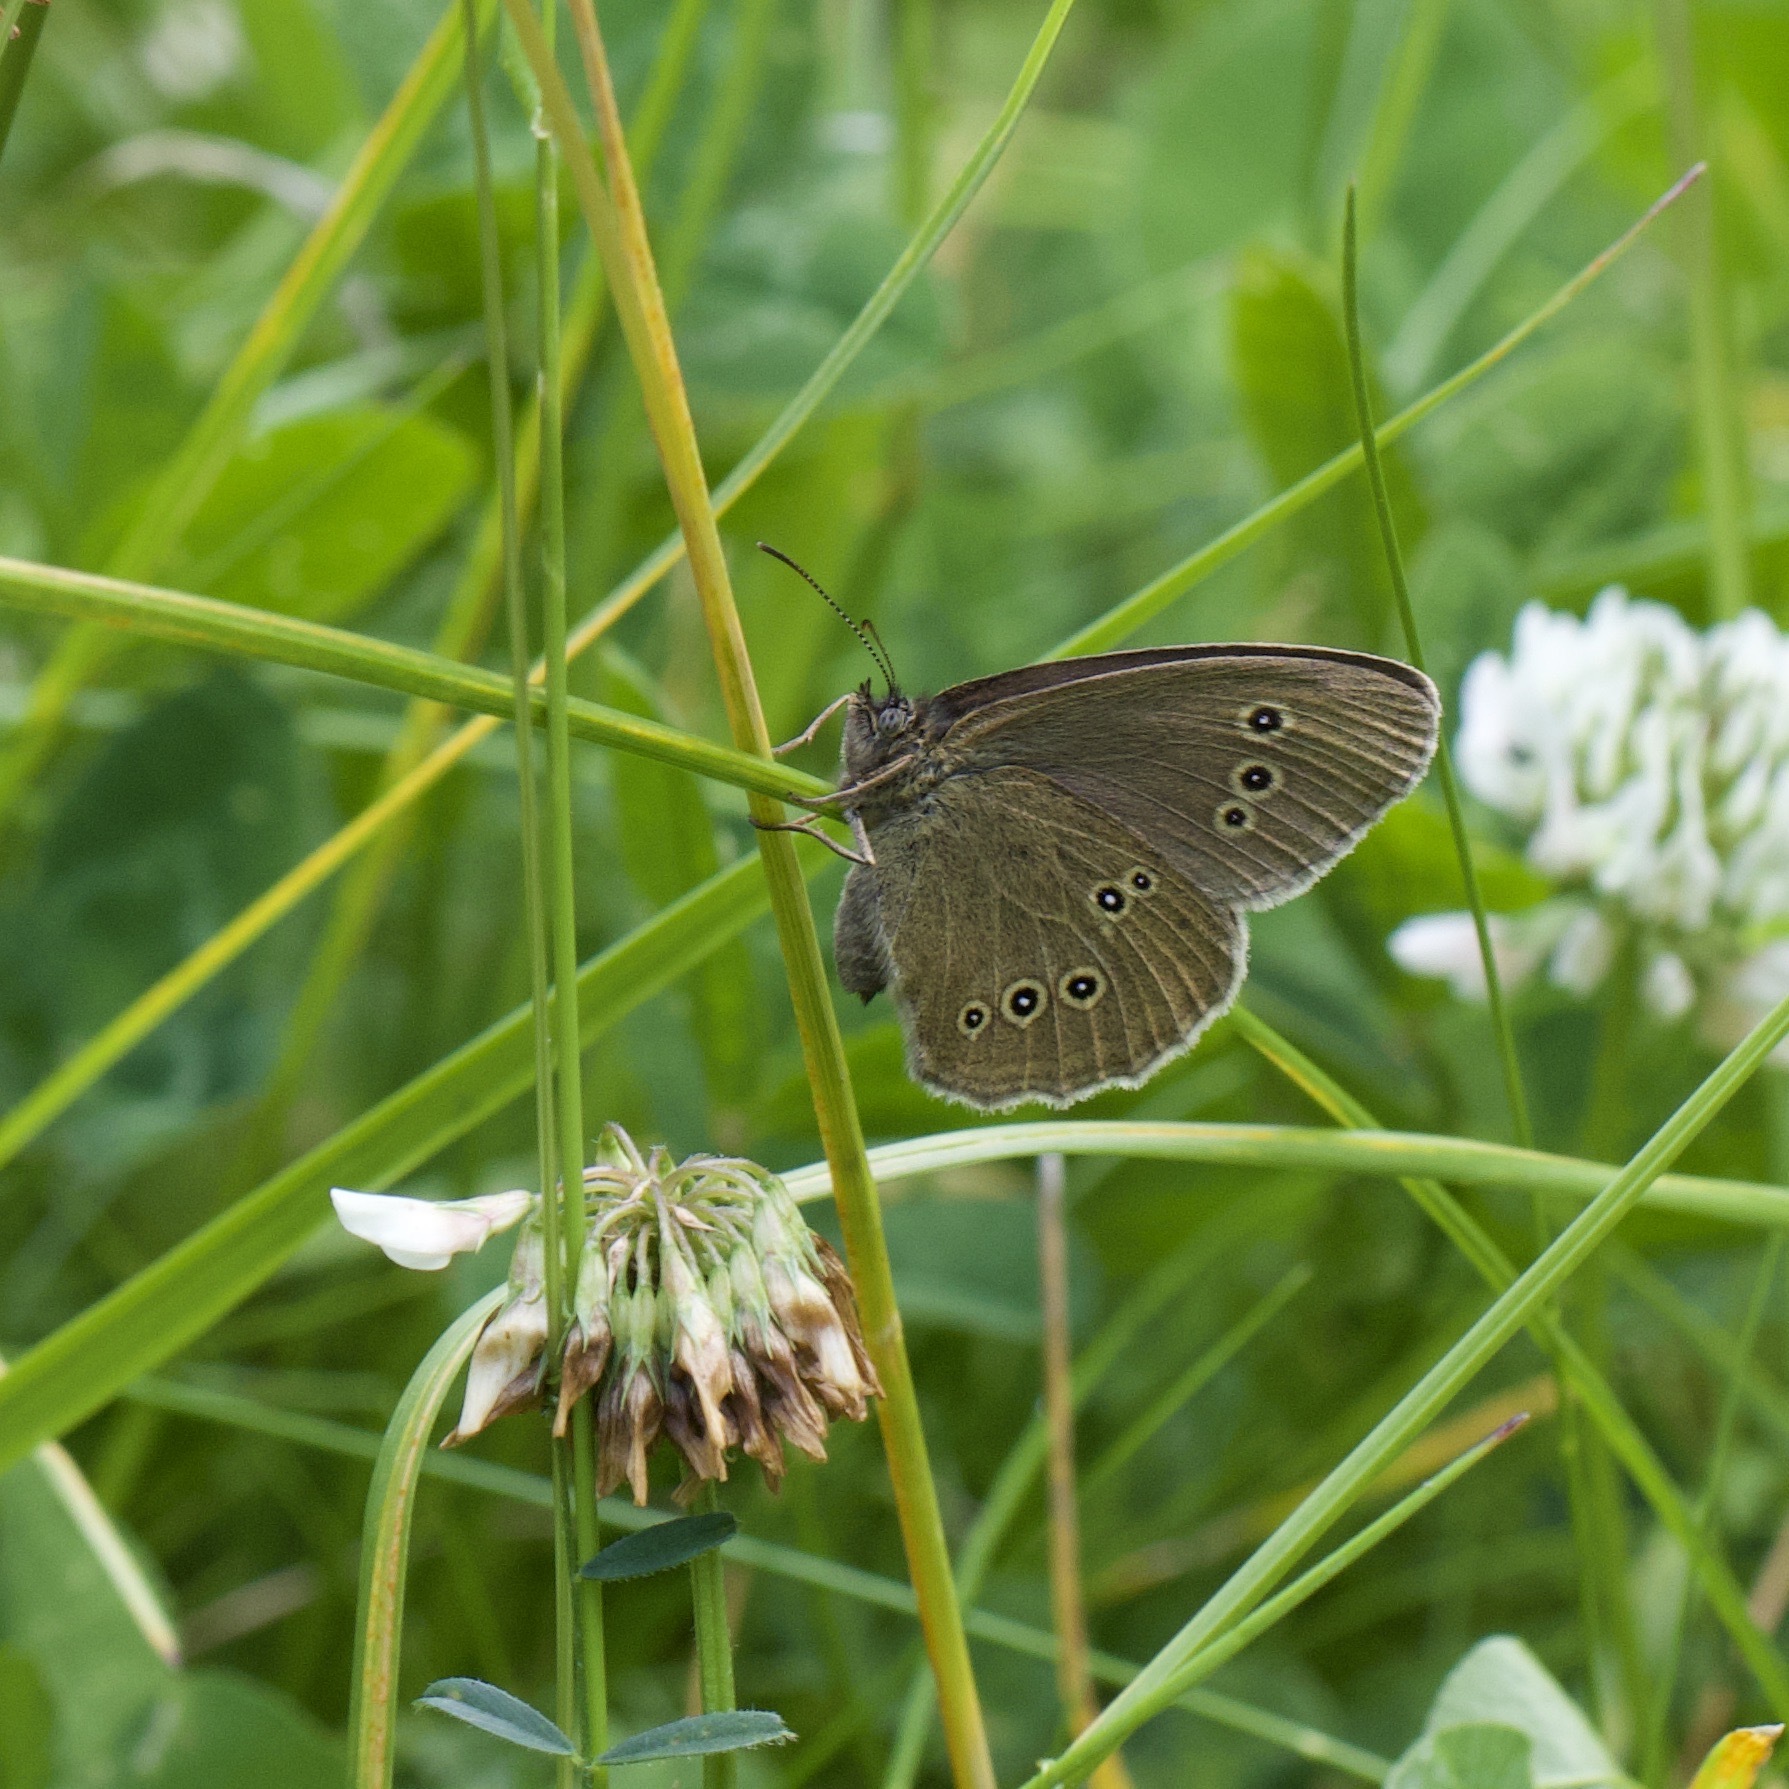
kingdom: Animalia
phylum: Arthropoda
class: Insecta
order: Lepidoptera
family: Nymphalidae
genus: Aphantopus
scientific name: Aphantopus hyperantus
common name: Ringlet
